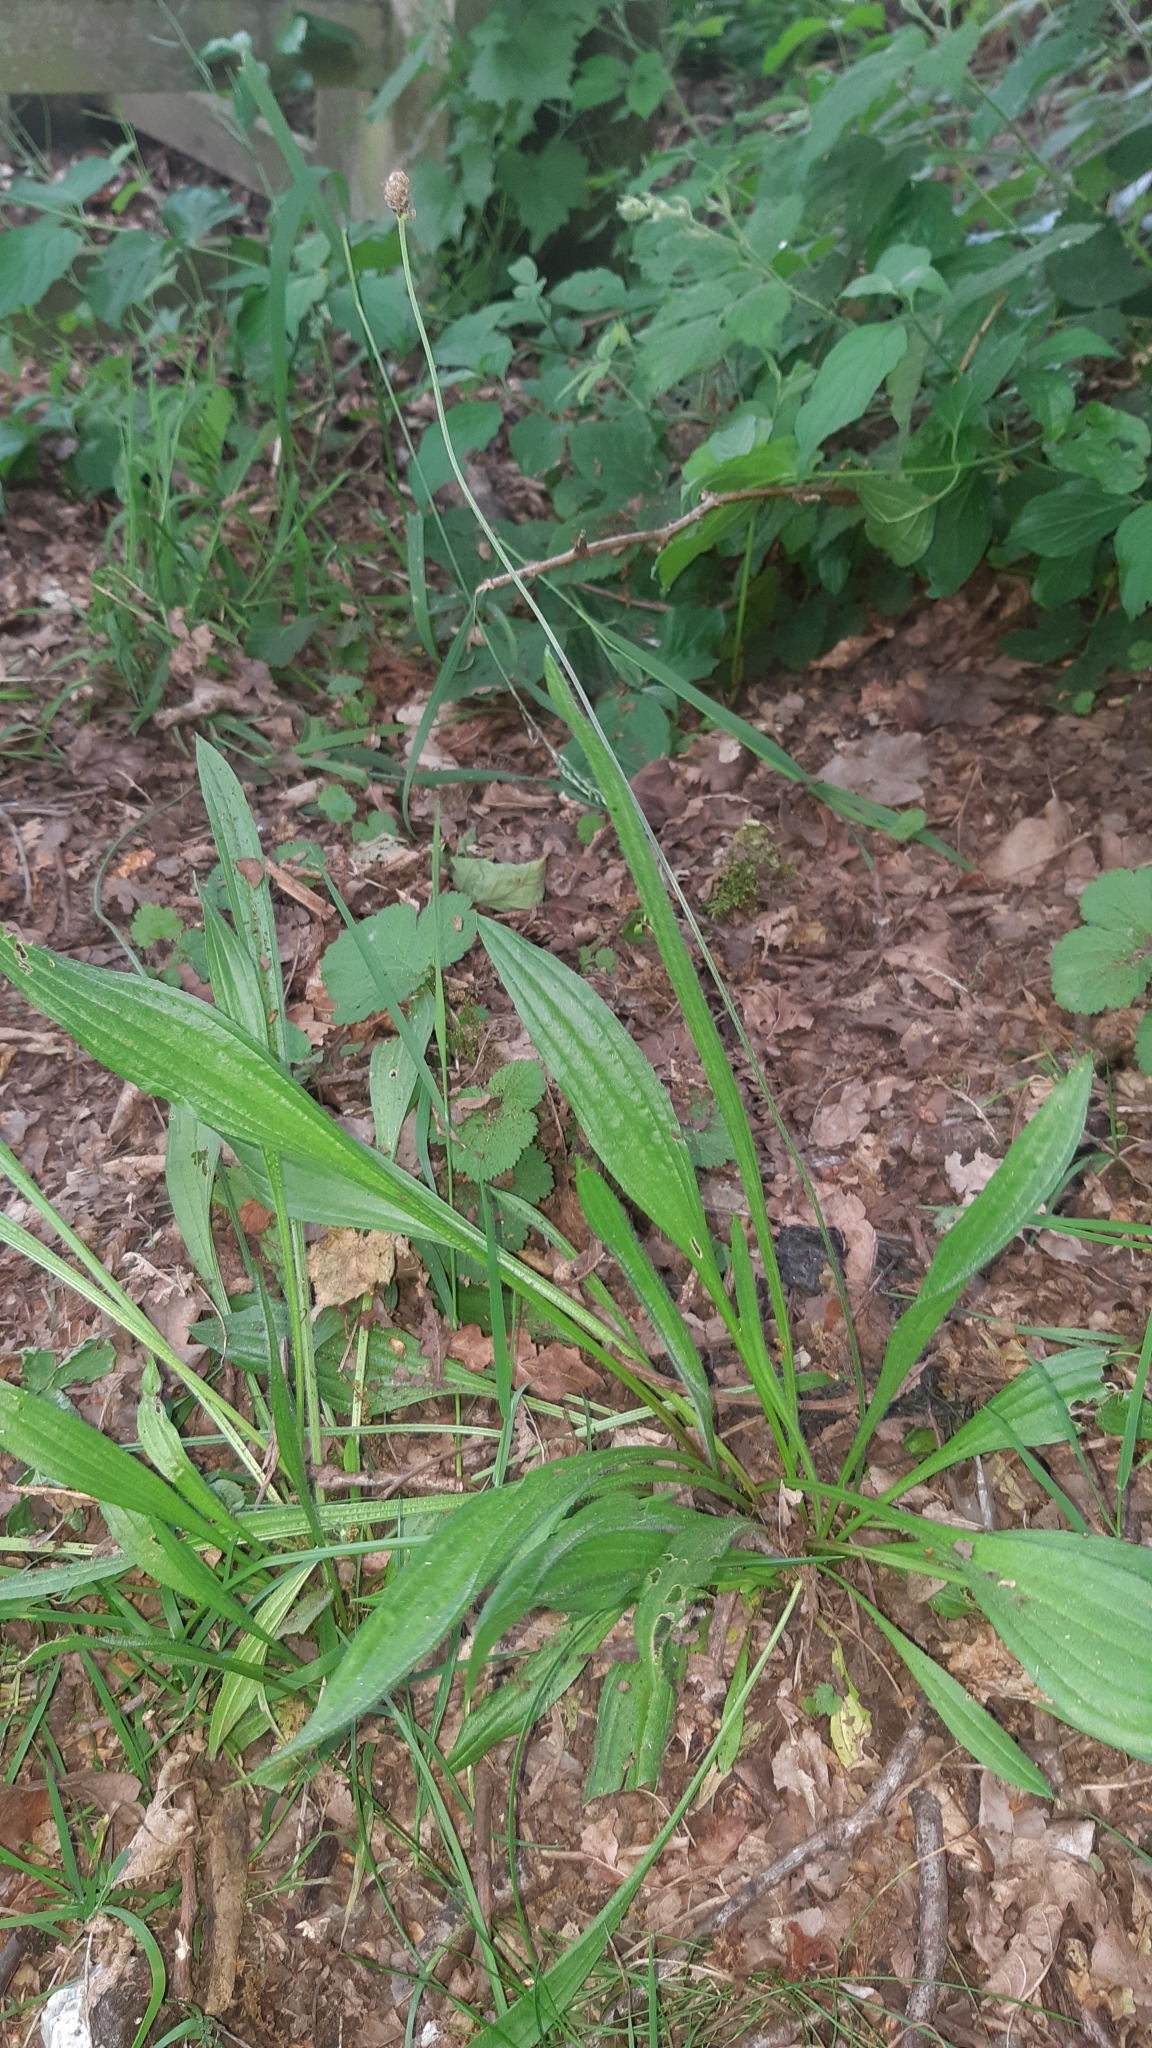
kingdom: Plantae
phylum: Tracheophyta
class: Magnoliopsida
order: Lamiales
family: Plantaginaceae
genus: Plantago
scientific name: Plantago lanceolata
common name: Ribwort plantain
